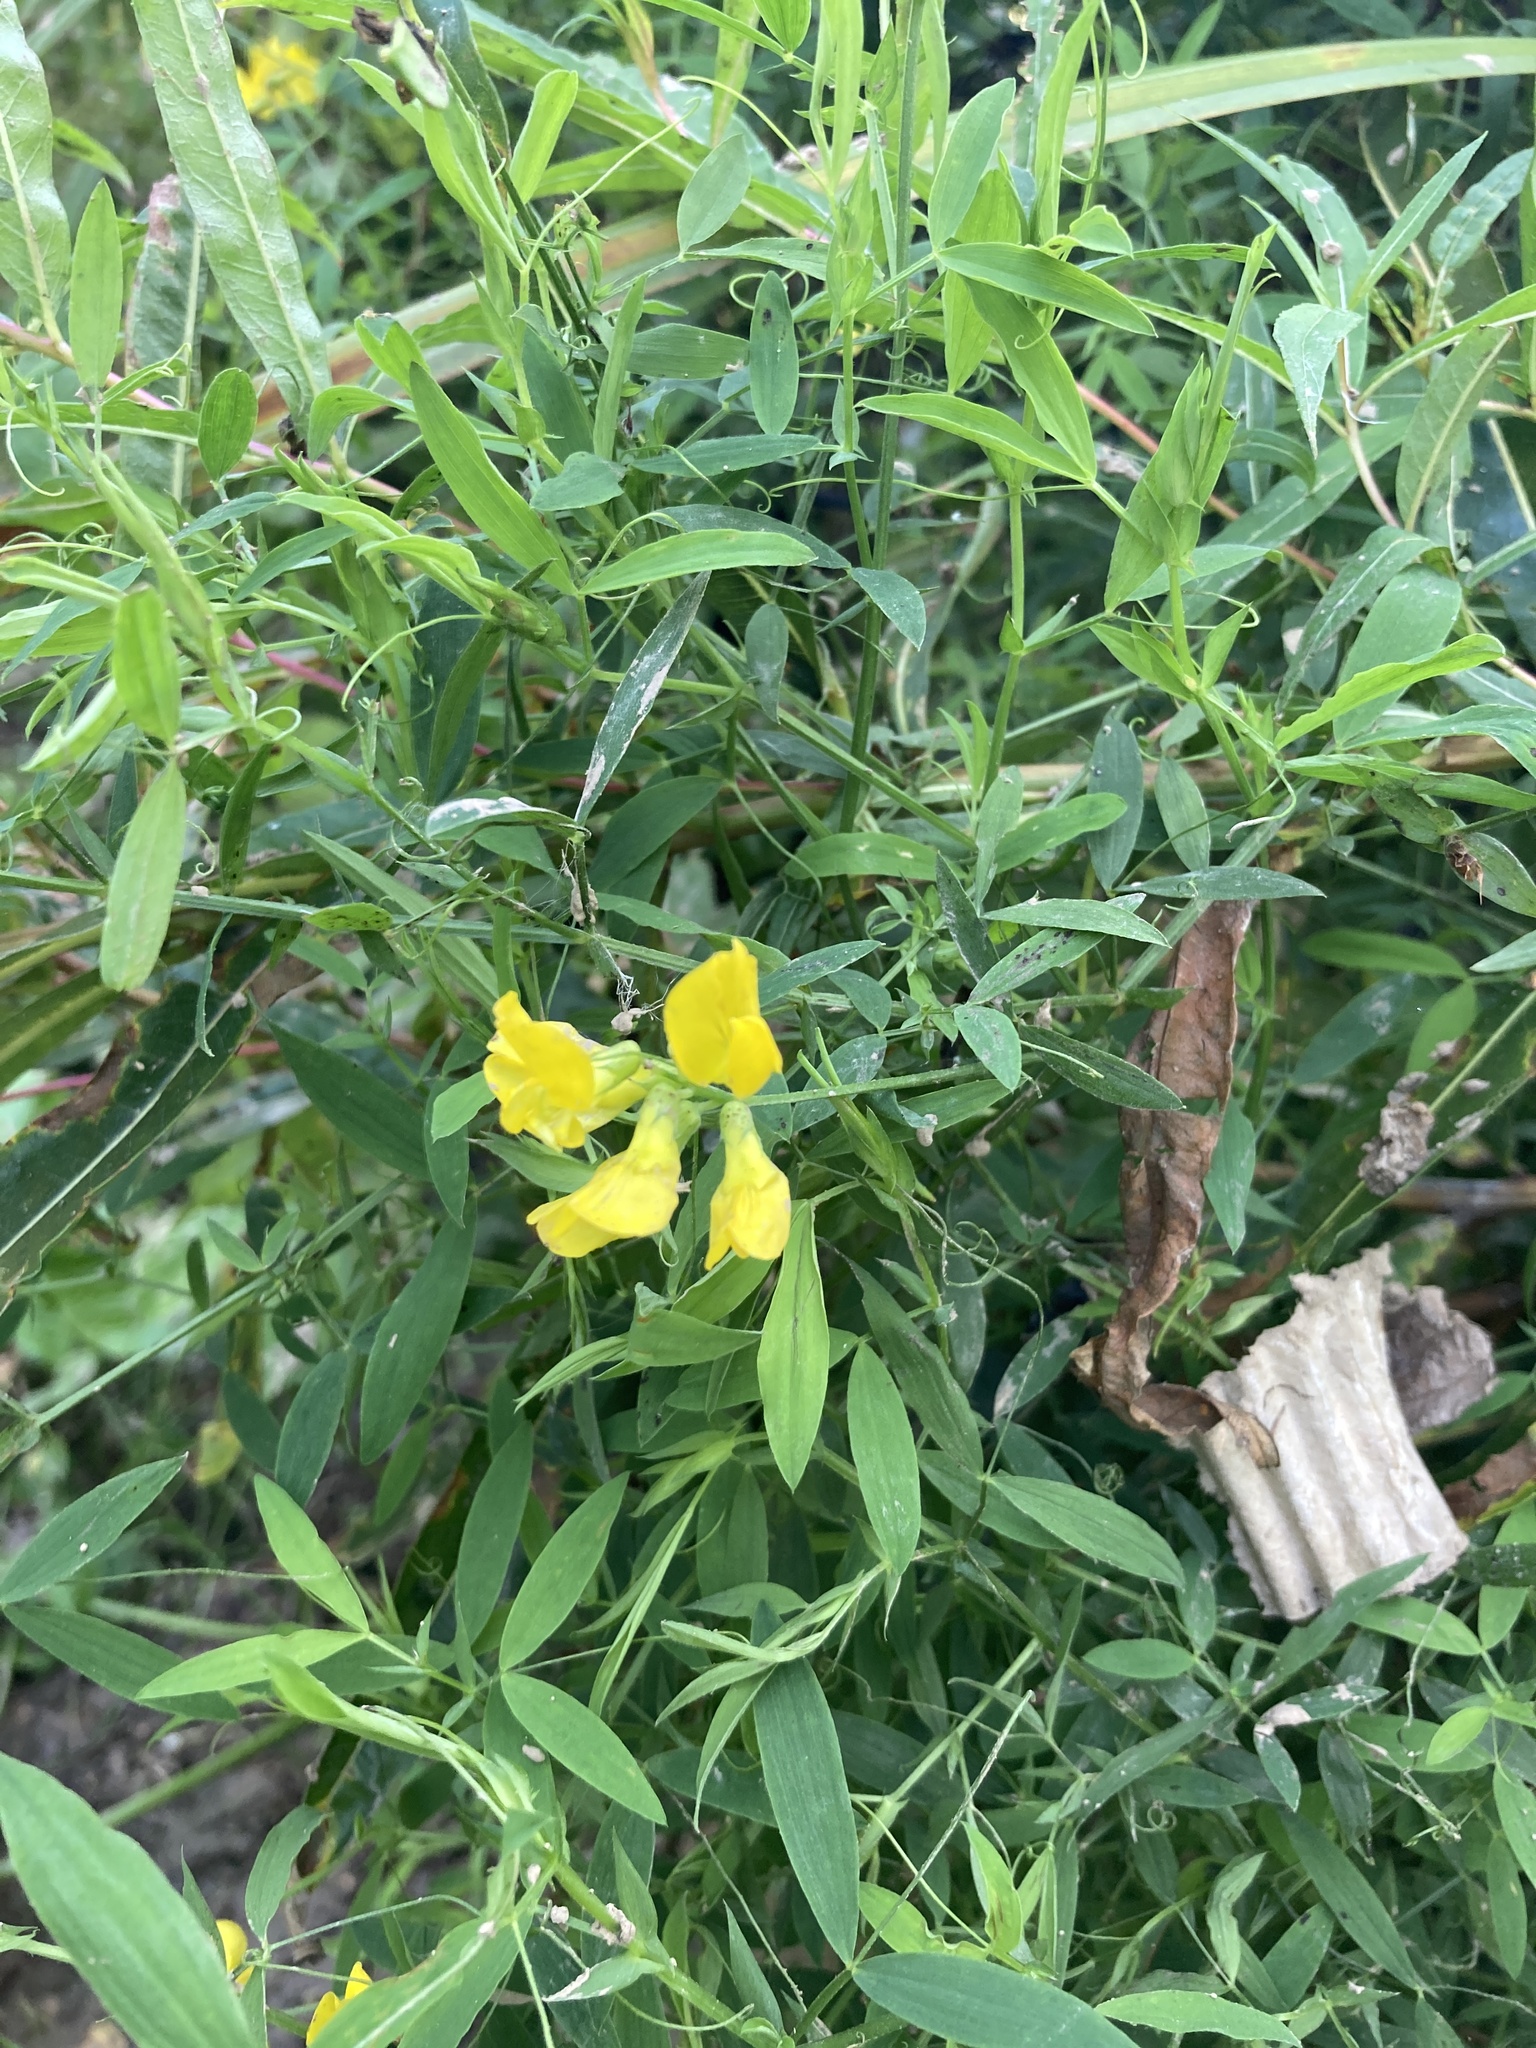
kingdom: Plantae
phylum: Tracheophyta
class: Magnoliopsida
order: Fabales
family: Fabaceae
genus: Lathyrus
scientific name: Lathyrus pratensis
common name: Meadow vetchling
